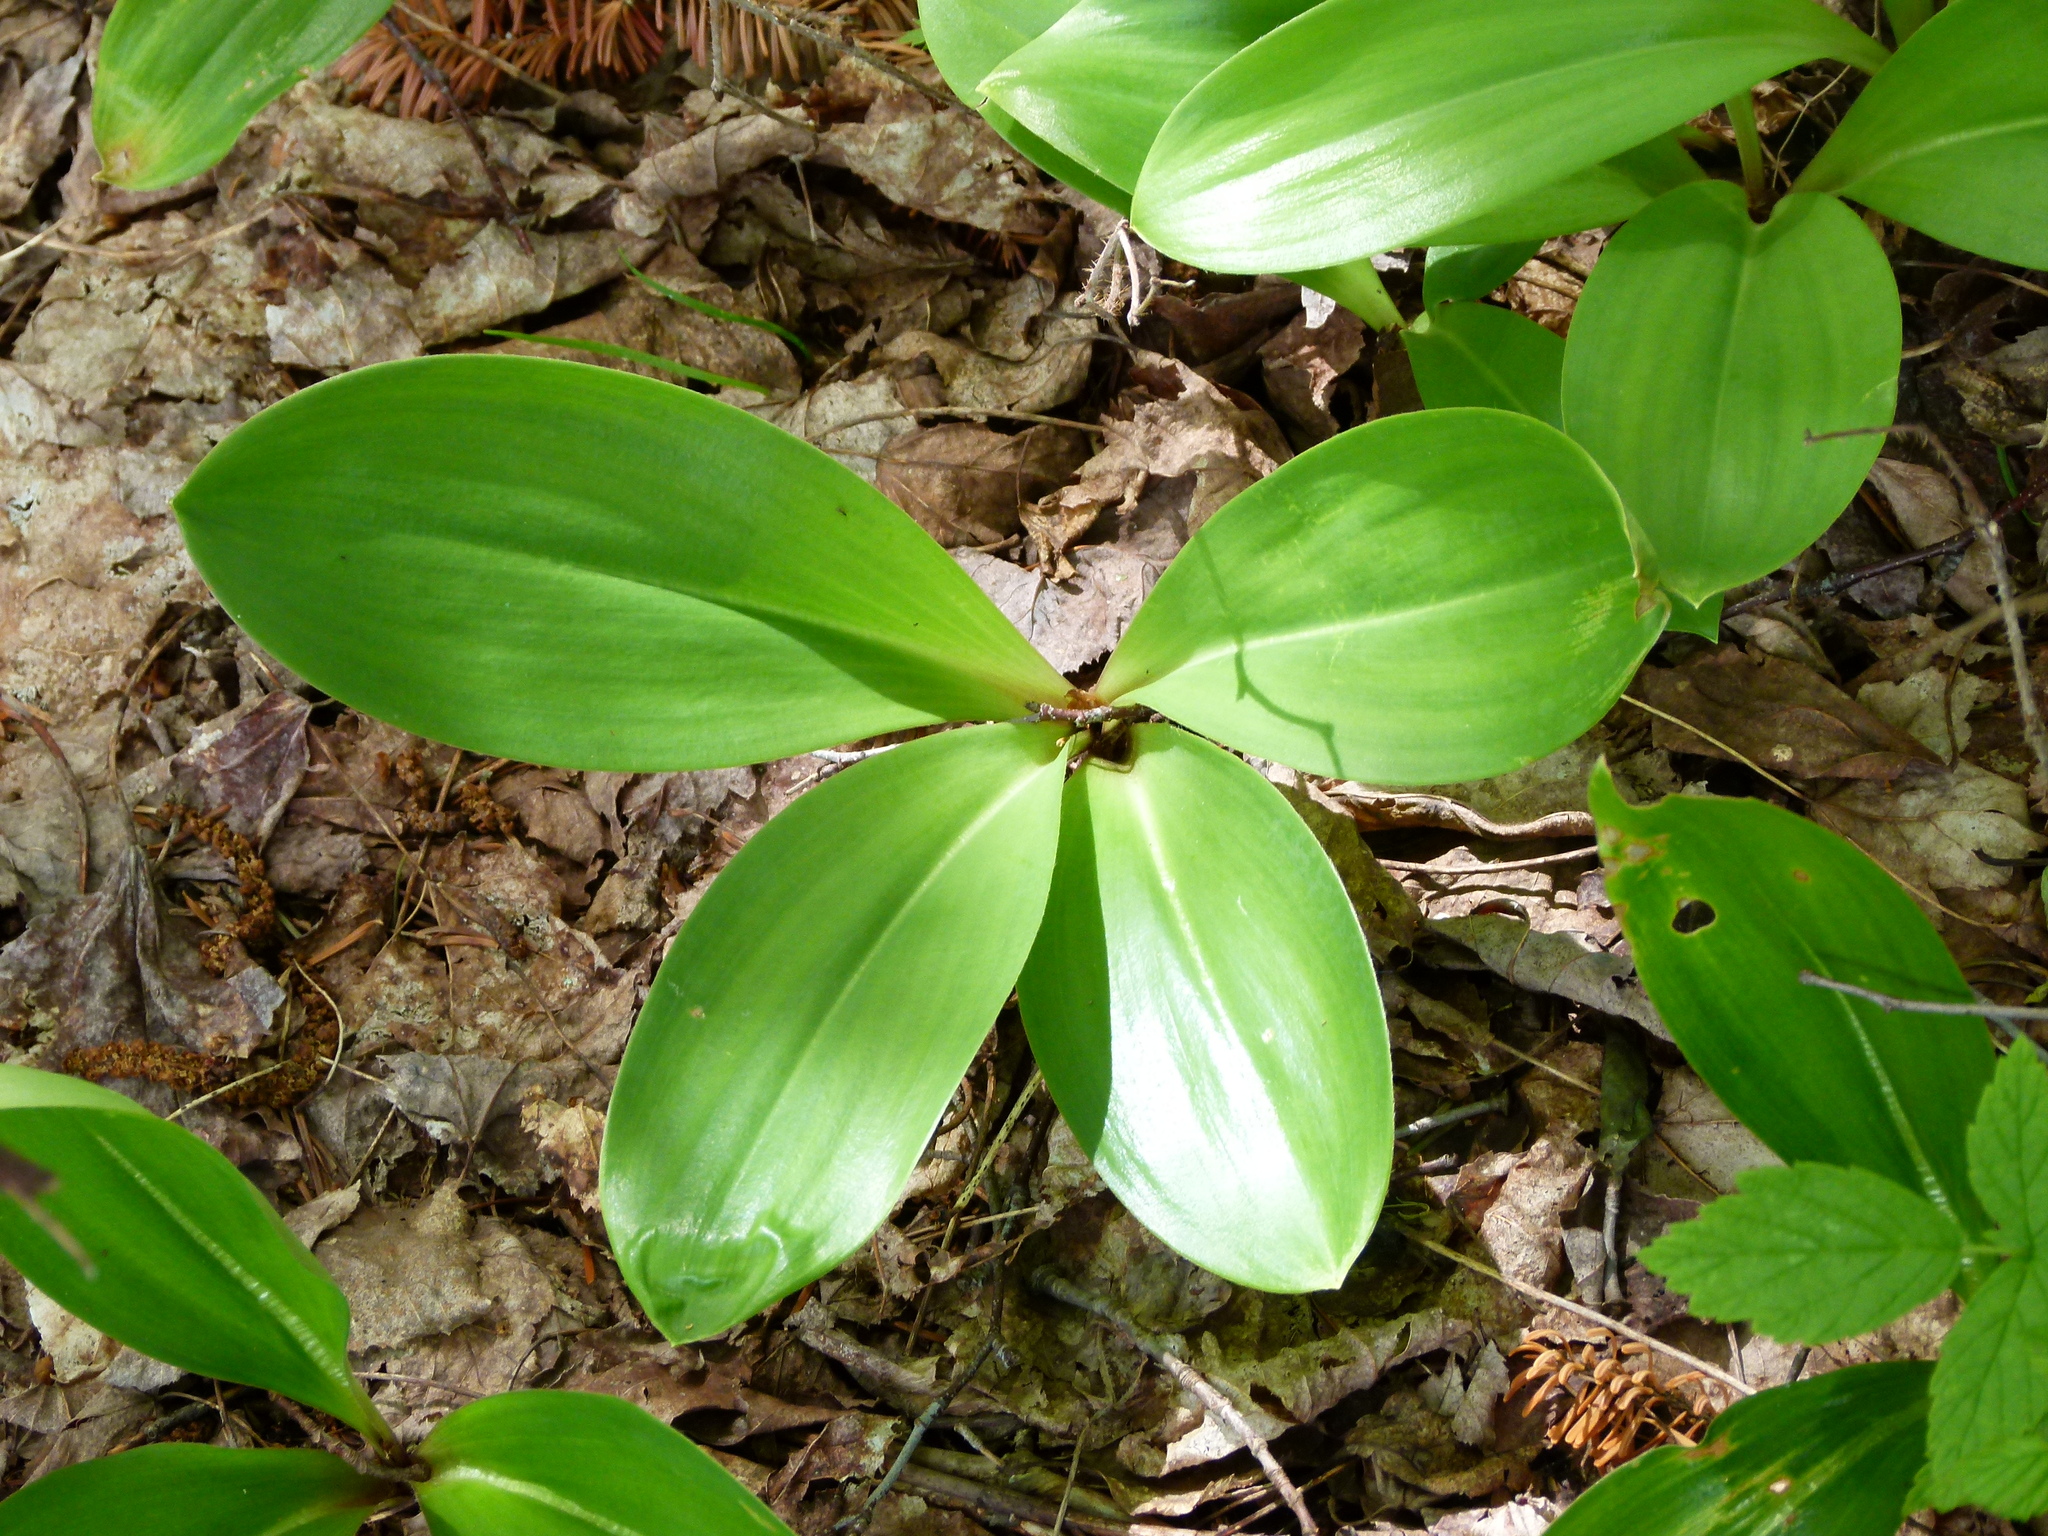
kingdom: Plantae
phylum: Tracheophyta
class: Liliopsida
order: Liliales
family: Liliaceae
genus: Clintonia
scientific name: Clintonia borealis
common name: Yellow clintonia
